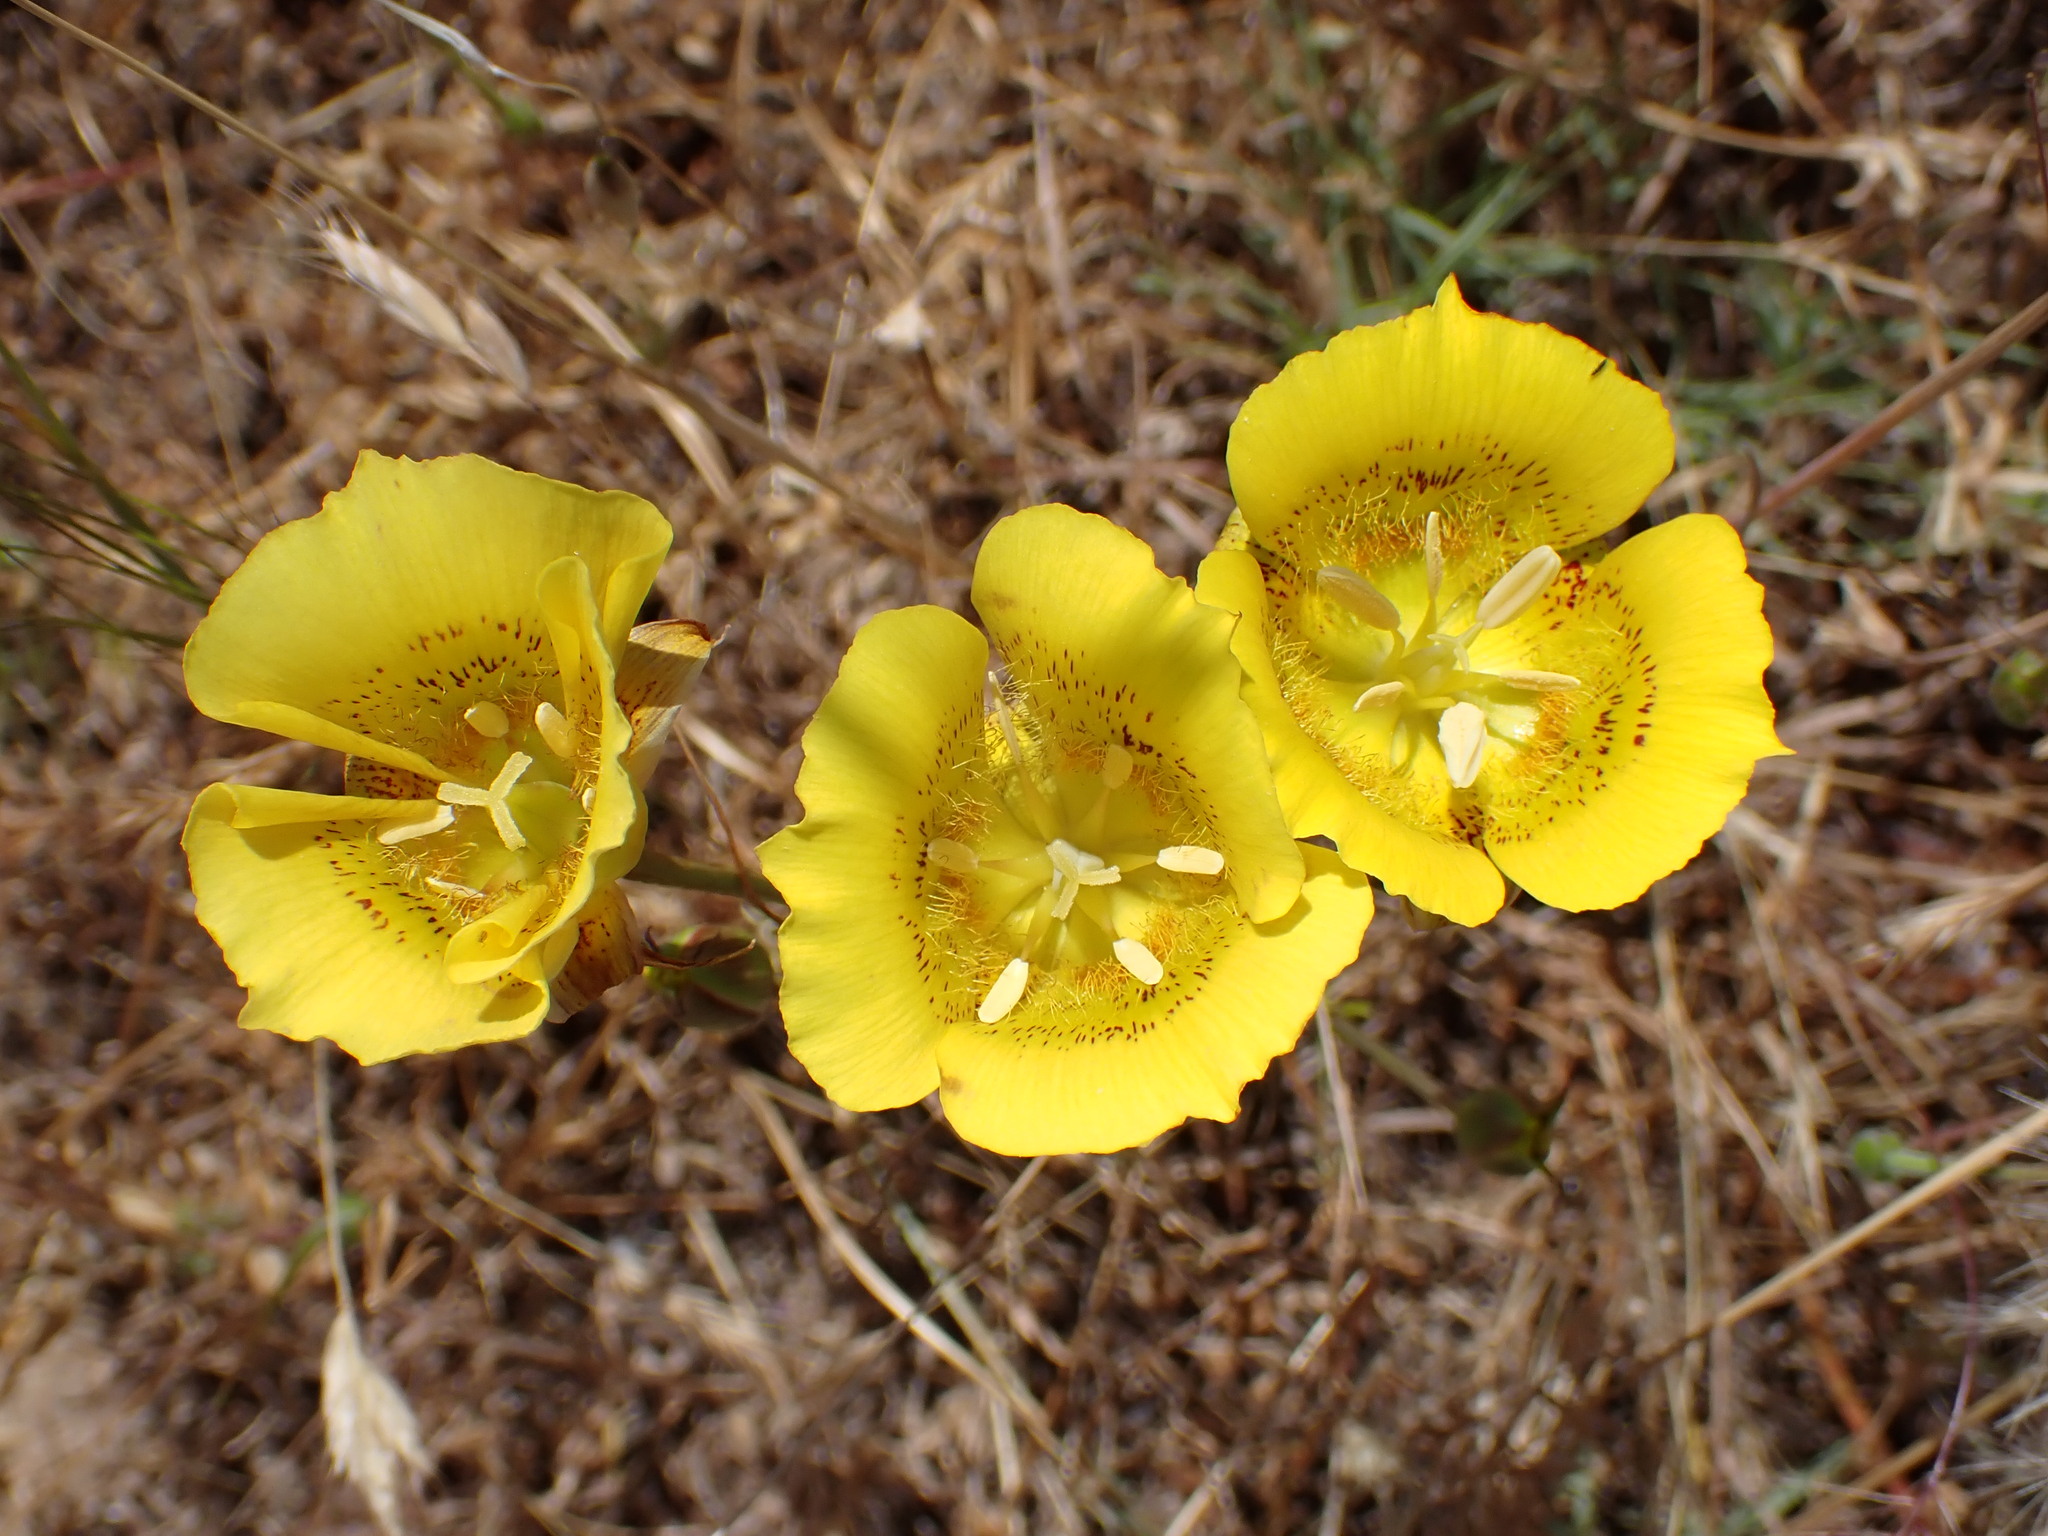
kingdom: Plantae
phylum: Tracheophyta
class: Liliopsida
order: Liliales
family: Liliaceae
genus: Calochortus
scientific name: Calochortus luteus
